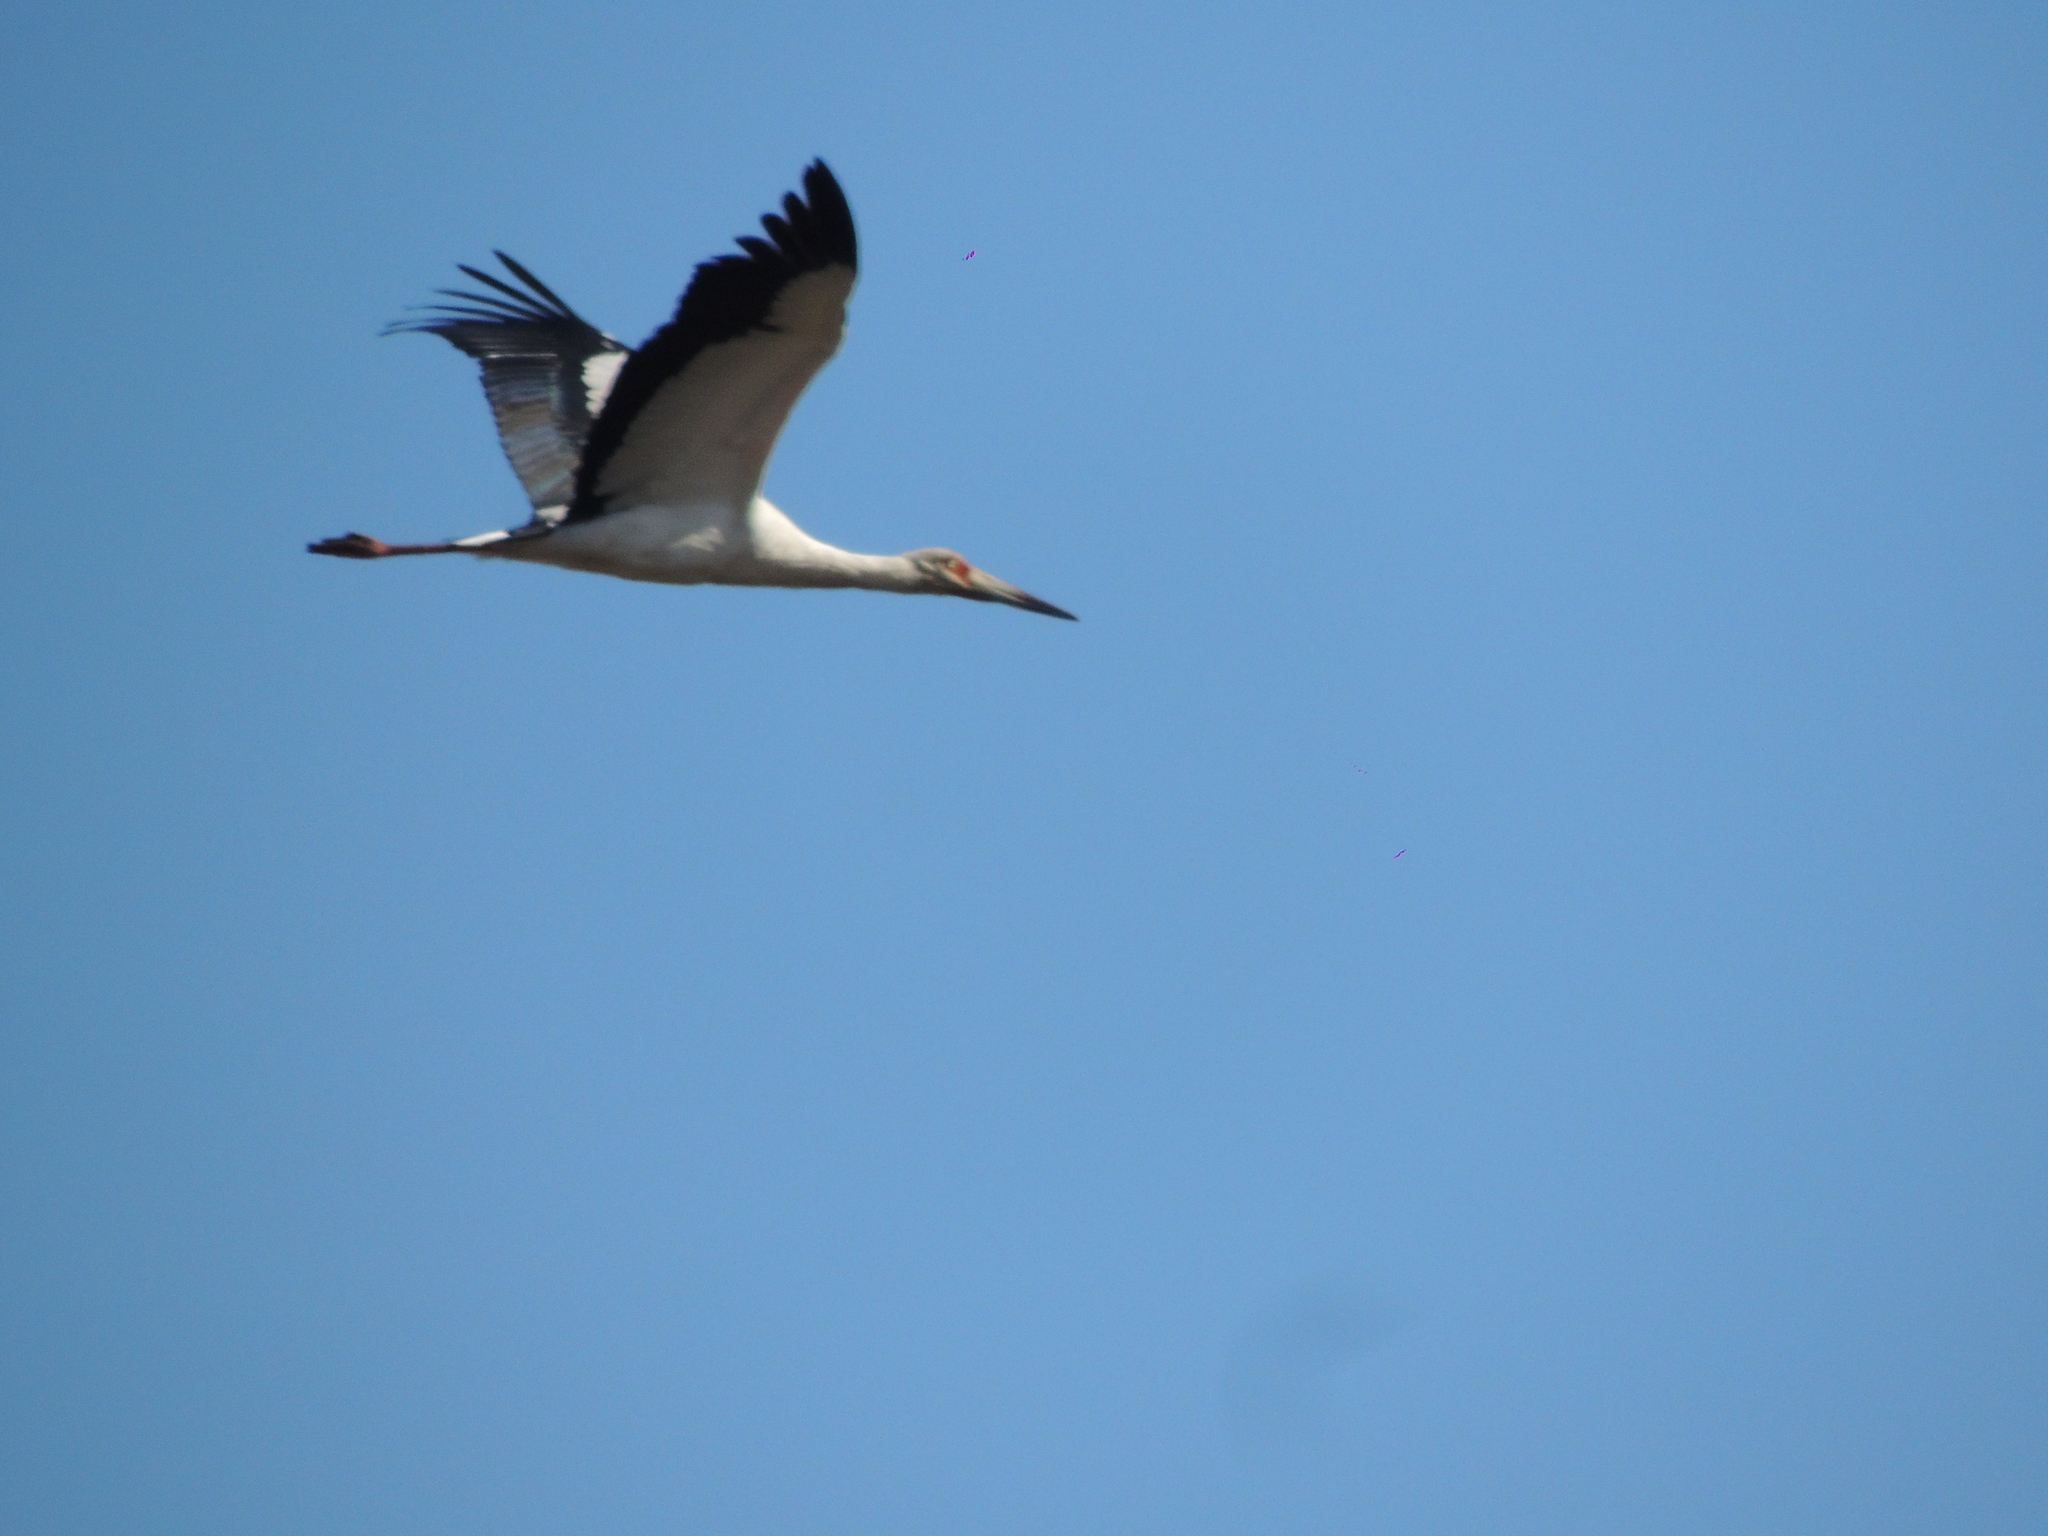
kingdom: Animalia
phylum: Chordata
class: Aves
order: Ciconiiformes
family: Ciconiidae
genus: Ciconia
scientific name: Ciconia maguari
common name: Maguari stork
